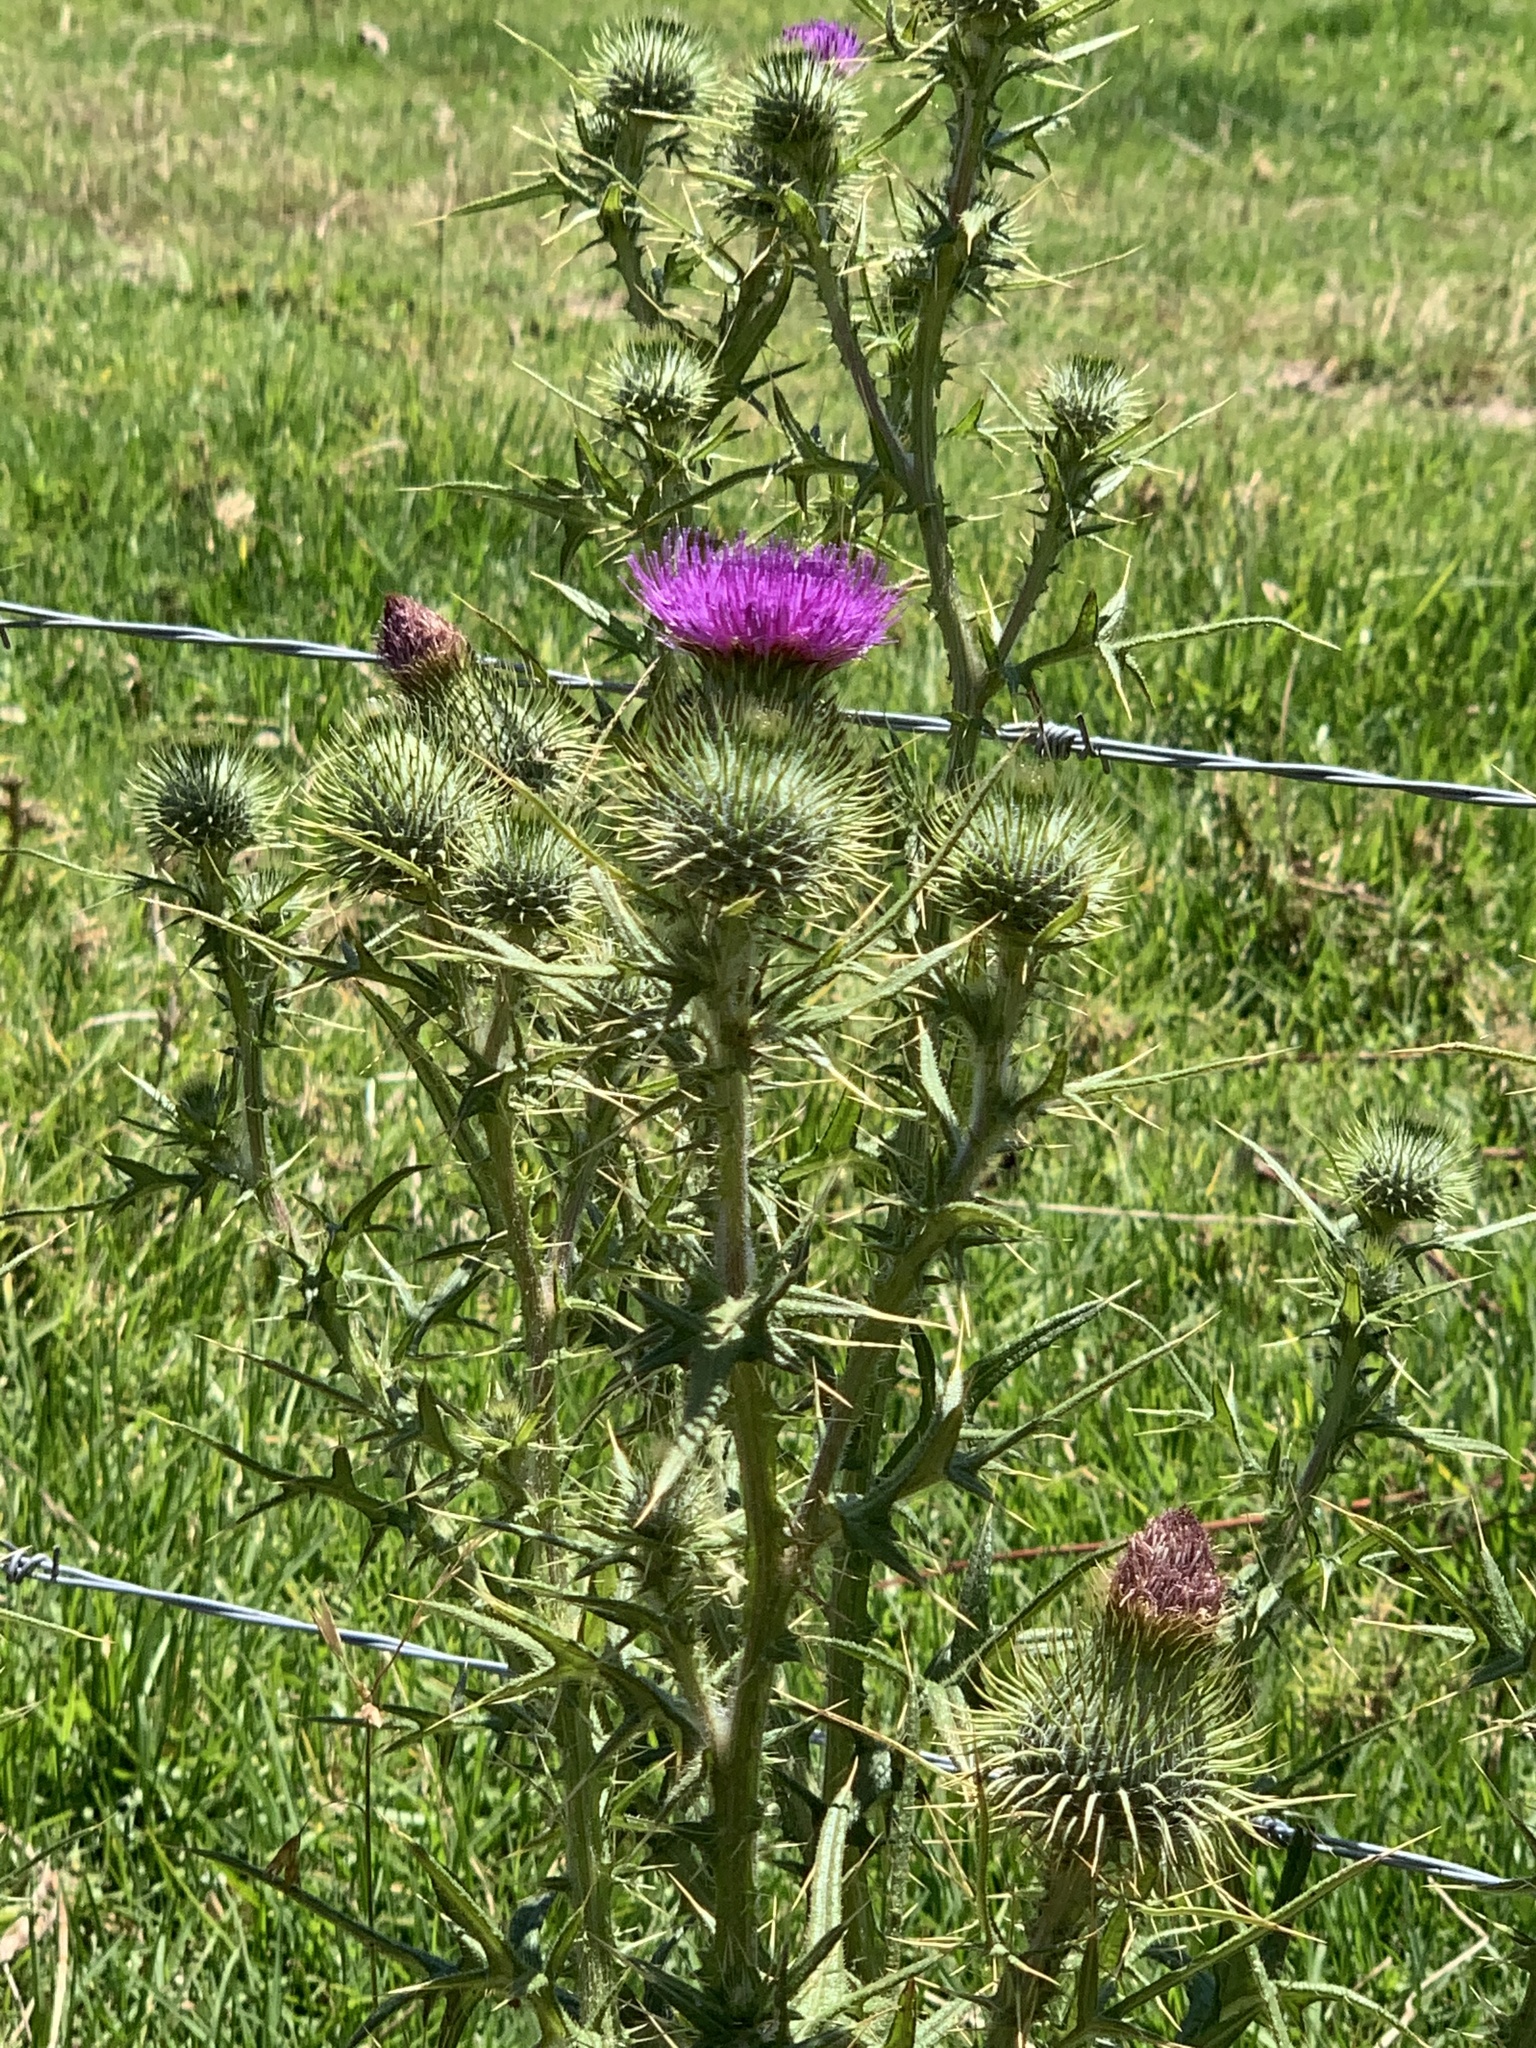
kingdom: Plantae
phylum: Tracheophyta
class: Magnoliopsida
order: Asterales
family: Asteraceae
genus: Cirsium
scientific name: Cirsium vulgare
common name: Bull thistle
